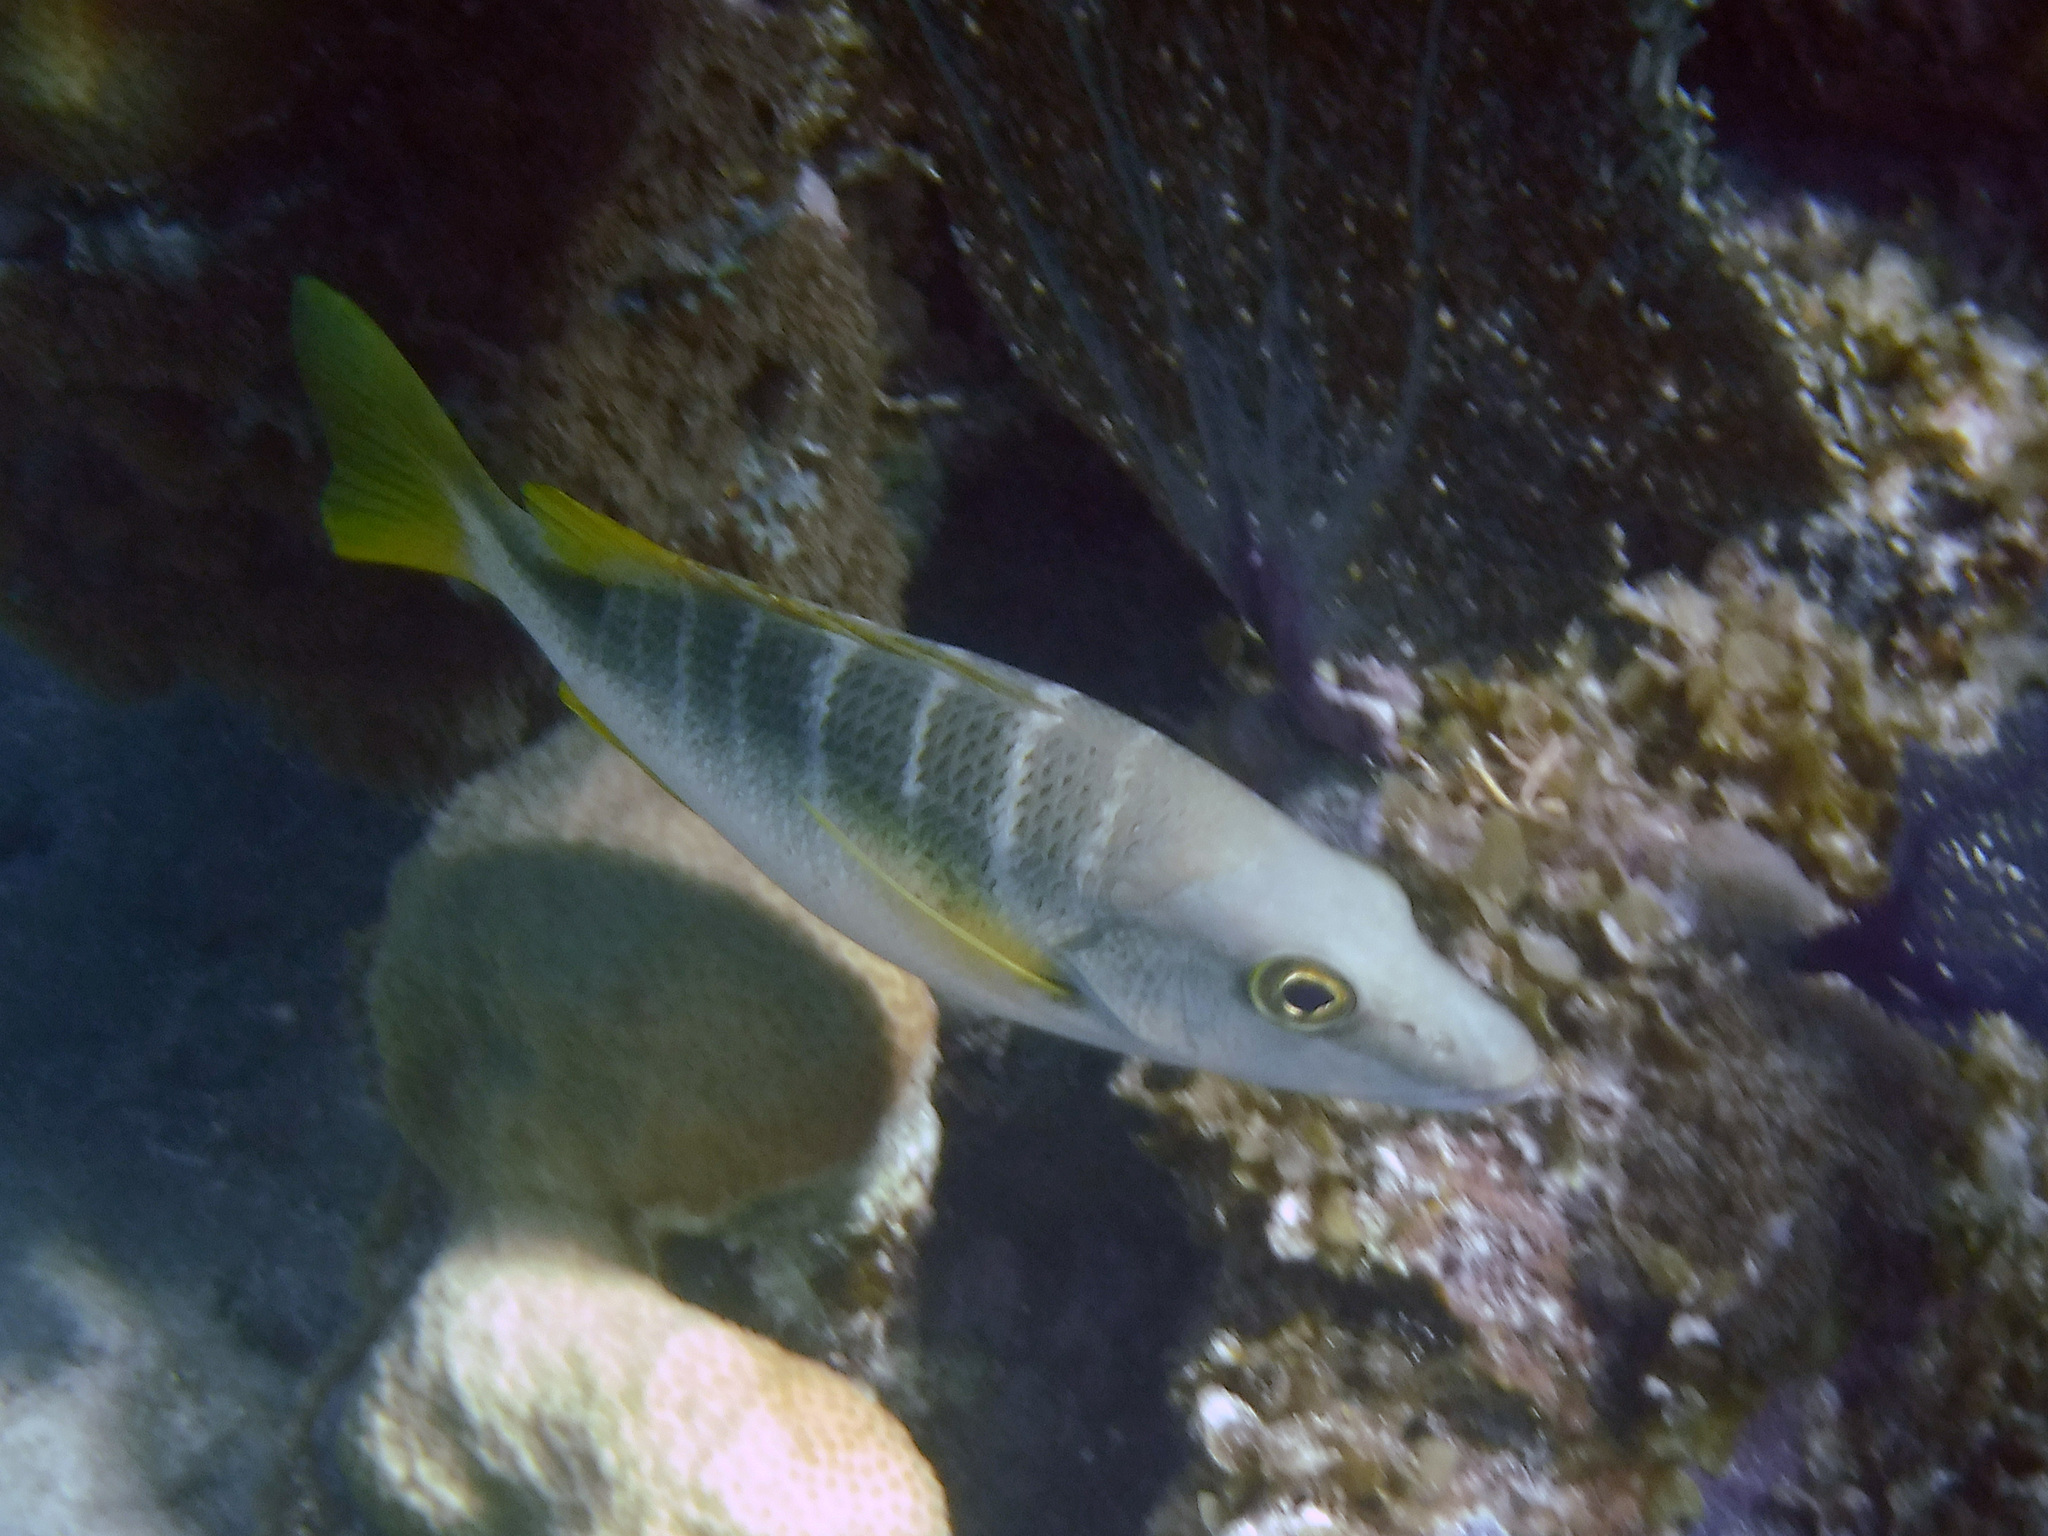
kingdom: Animalia
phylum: Chordata
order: Perciformes
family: Lutjanidae
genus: Lutjanus
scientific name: Lutjanus apodus
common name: Schoolmaster
